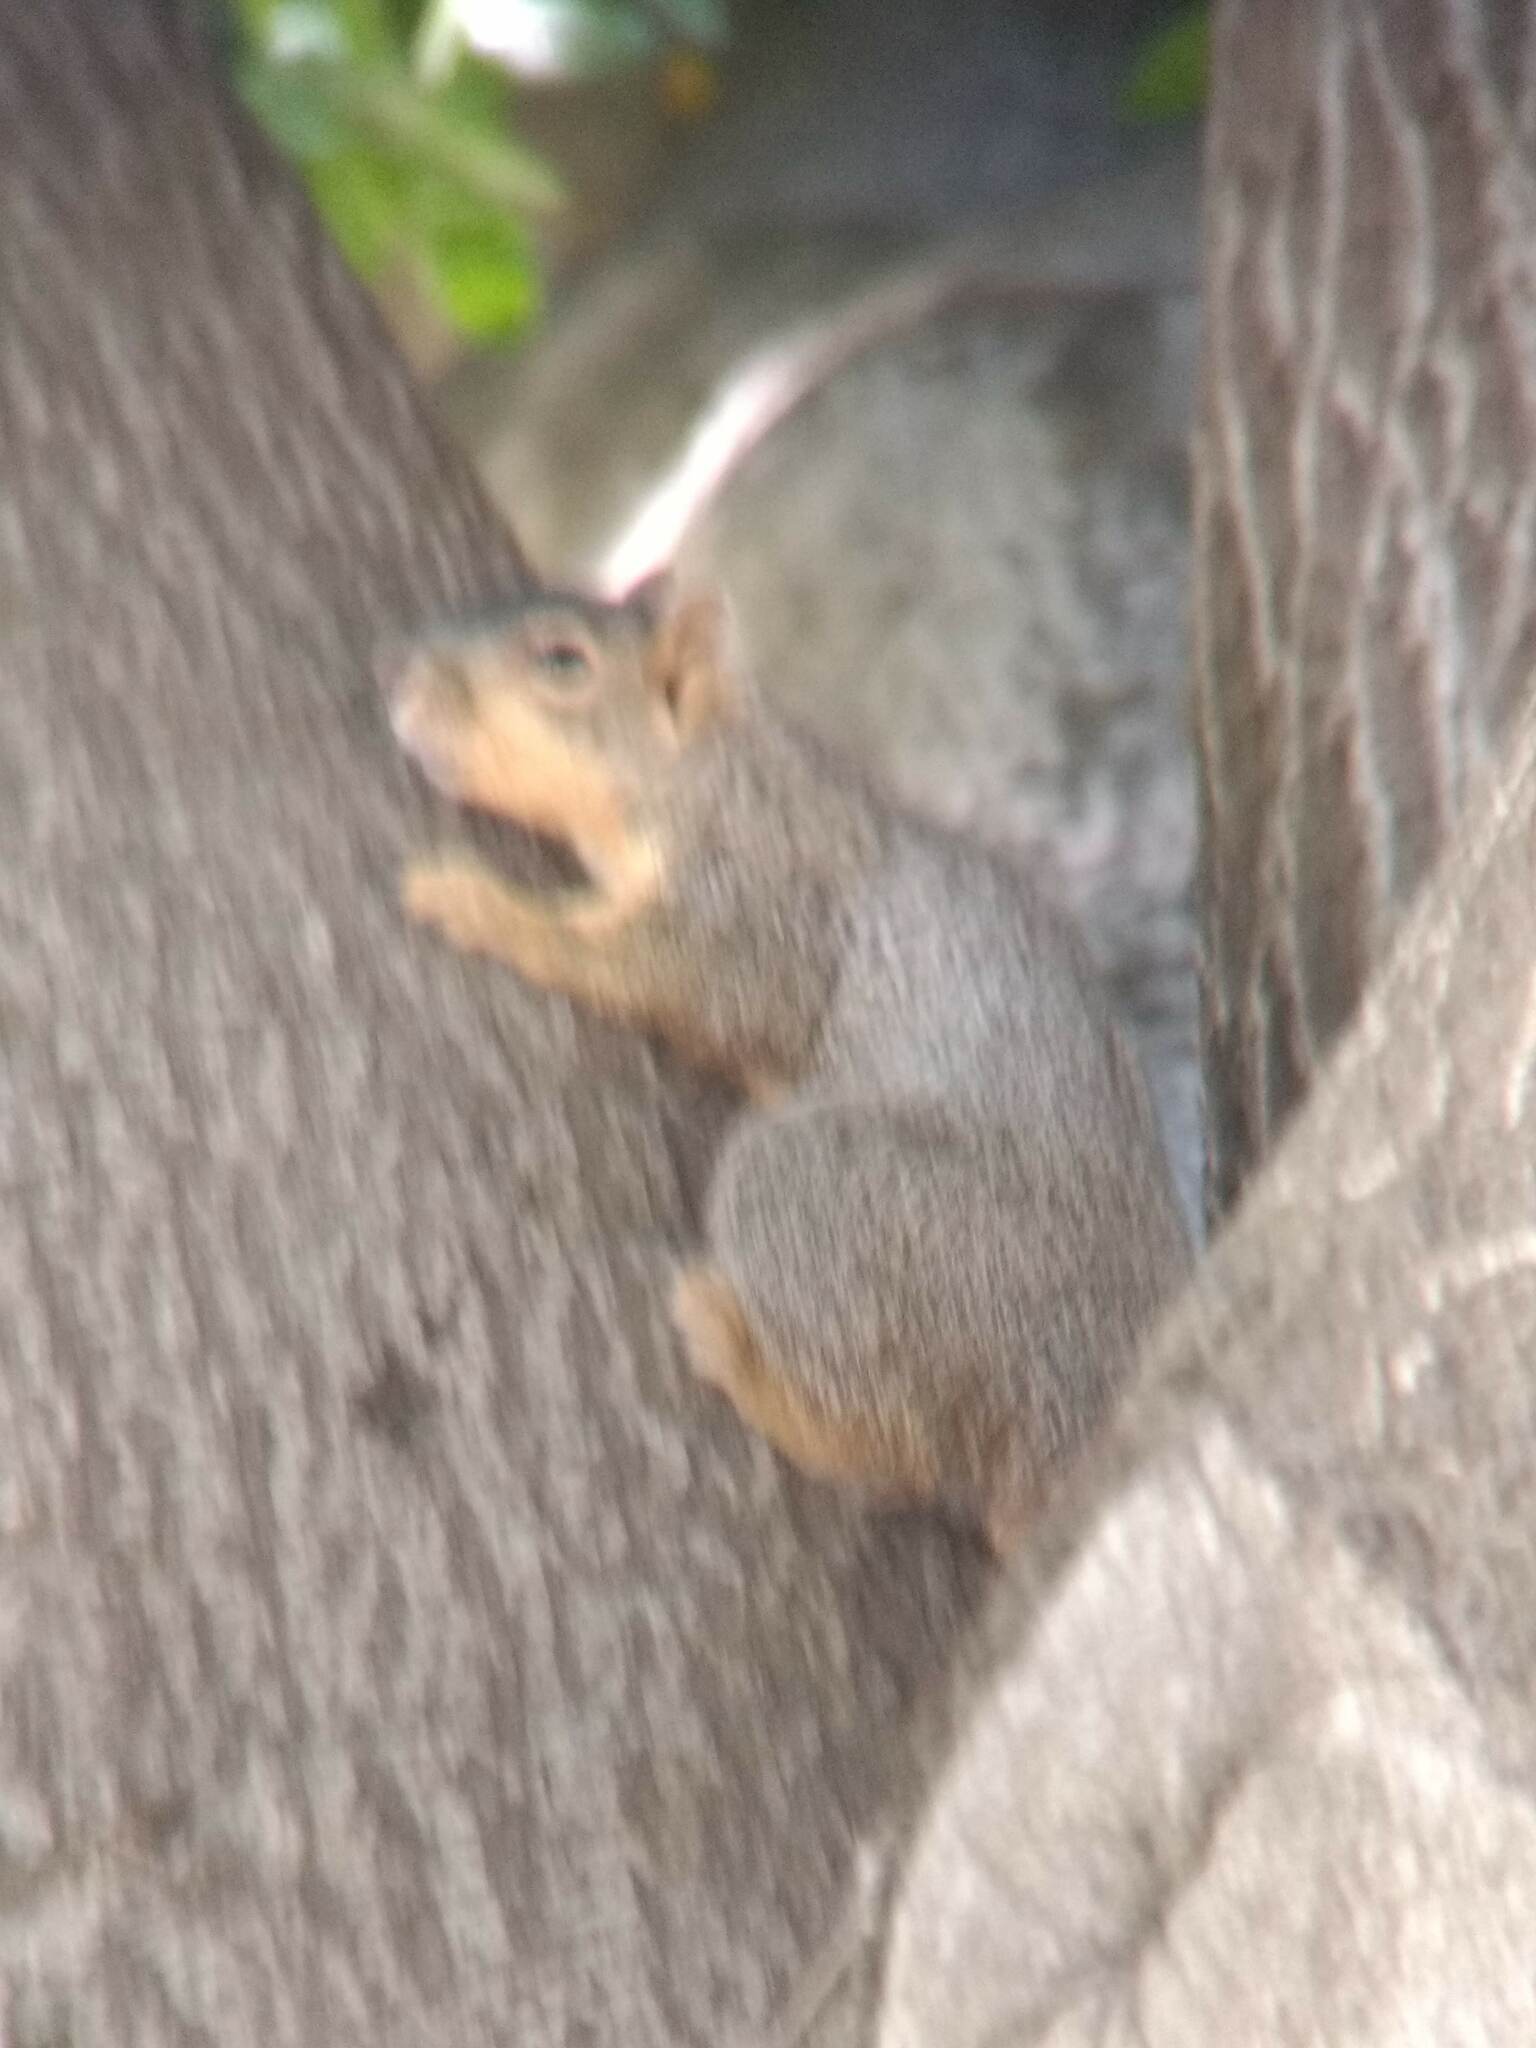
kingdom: Animalia
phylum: Chordata
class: Mammalia
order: Rodentia
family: Sciuridae
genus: Sciurus
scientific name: Sciurus niger
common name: Fox squirrel
